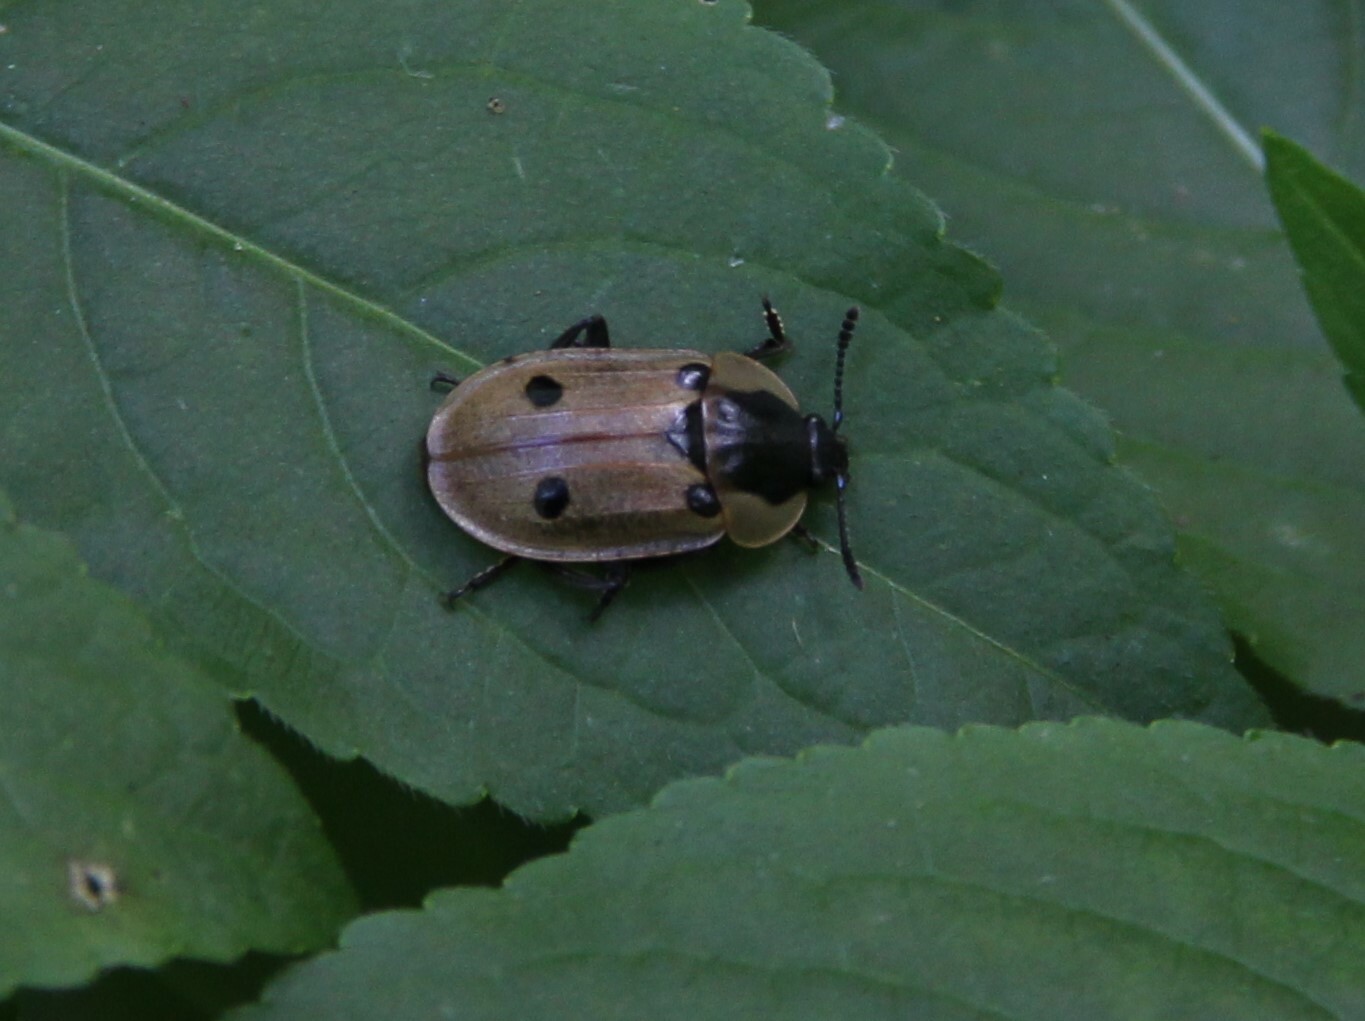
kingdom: Animalia
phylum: Arthropoda
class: Insecta
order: Coleoptera
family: Staphylinidae
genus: Dendroxena
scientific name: Dendroxena quadrimaculata
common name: Carrion beetle
